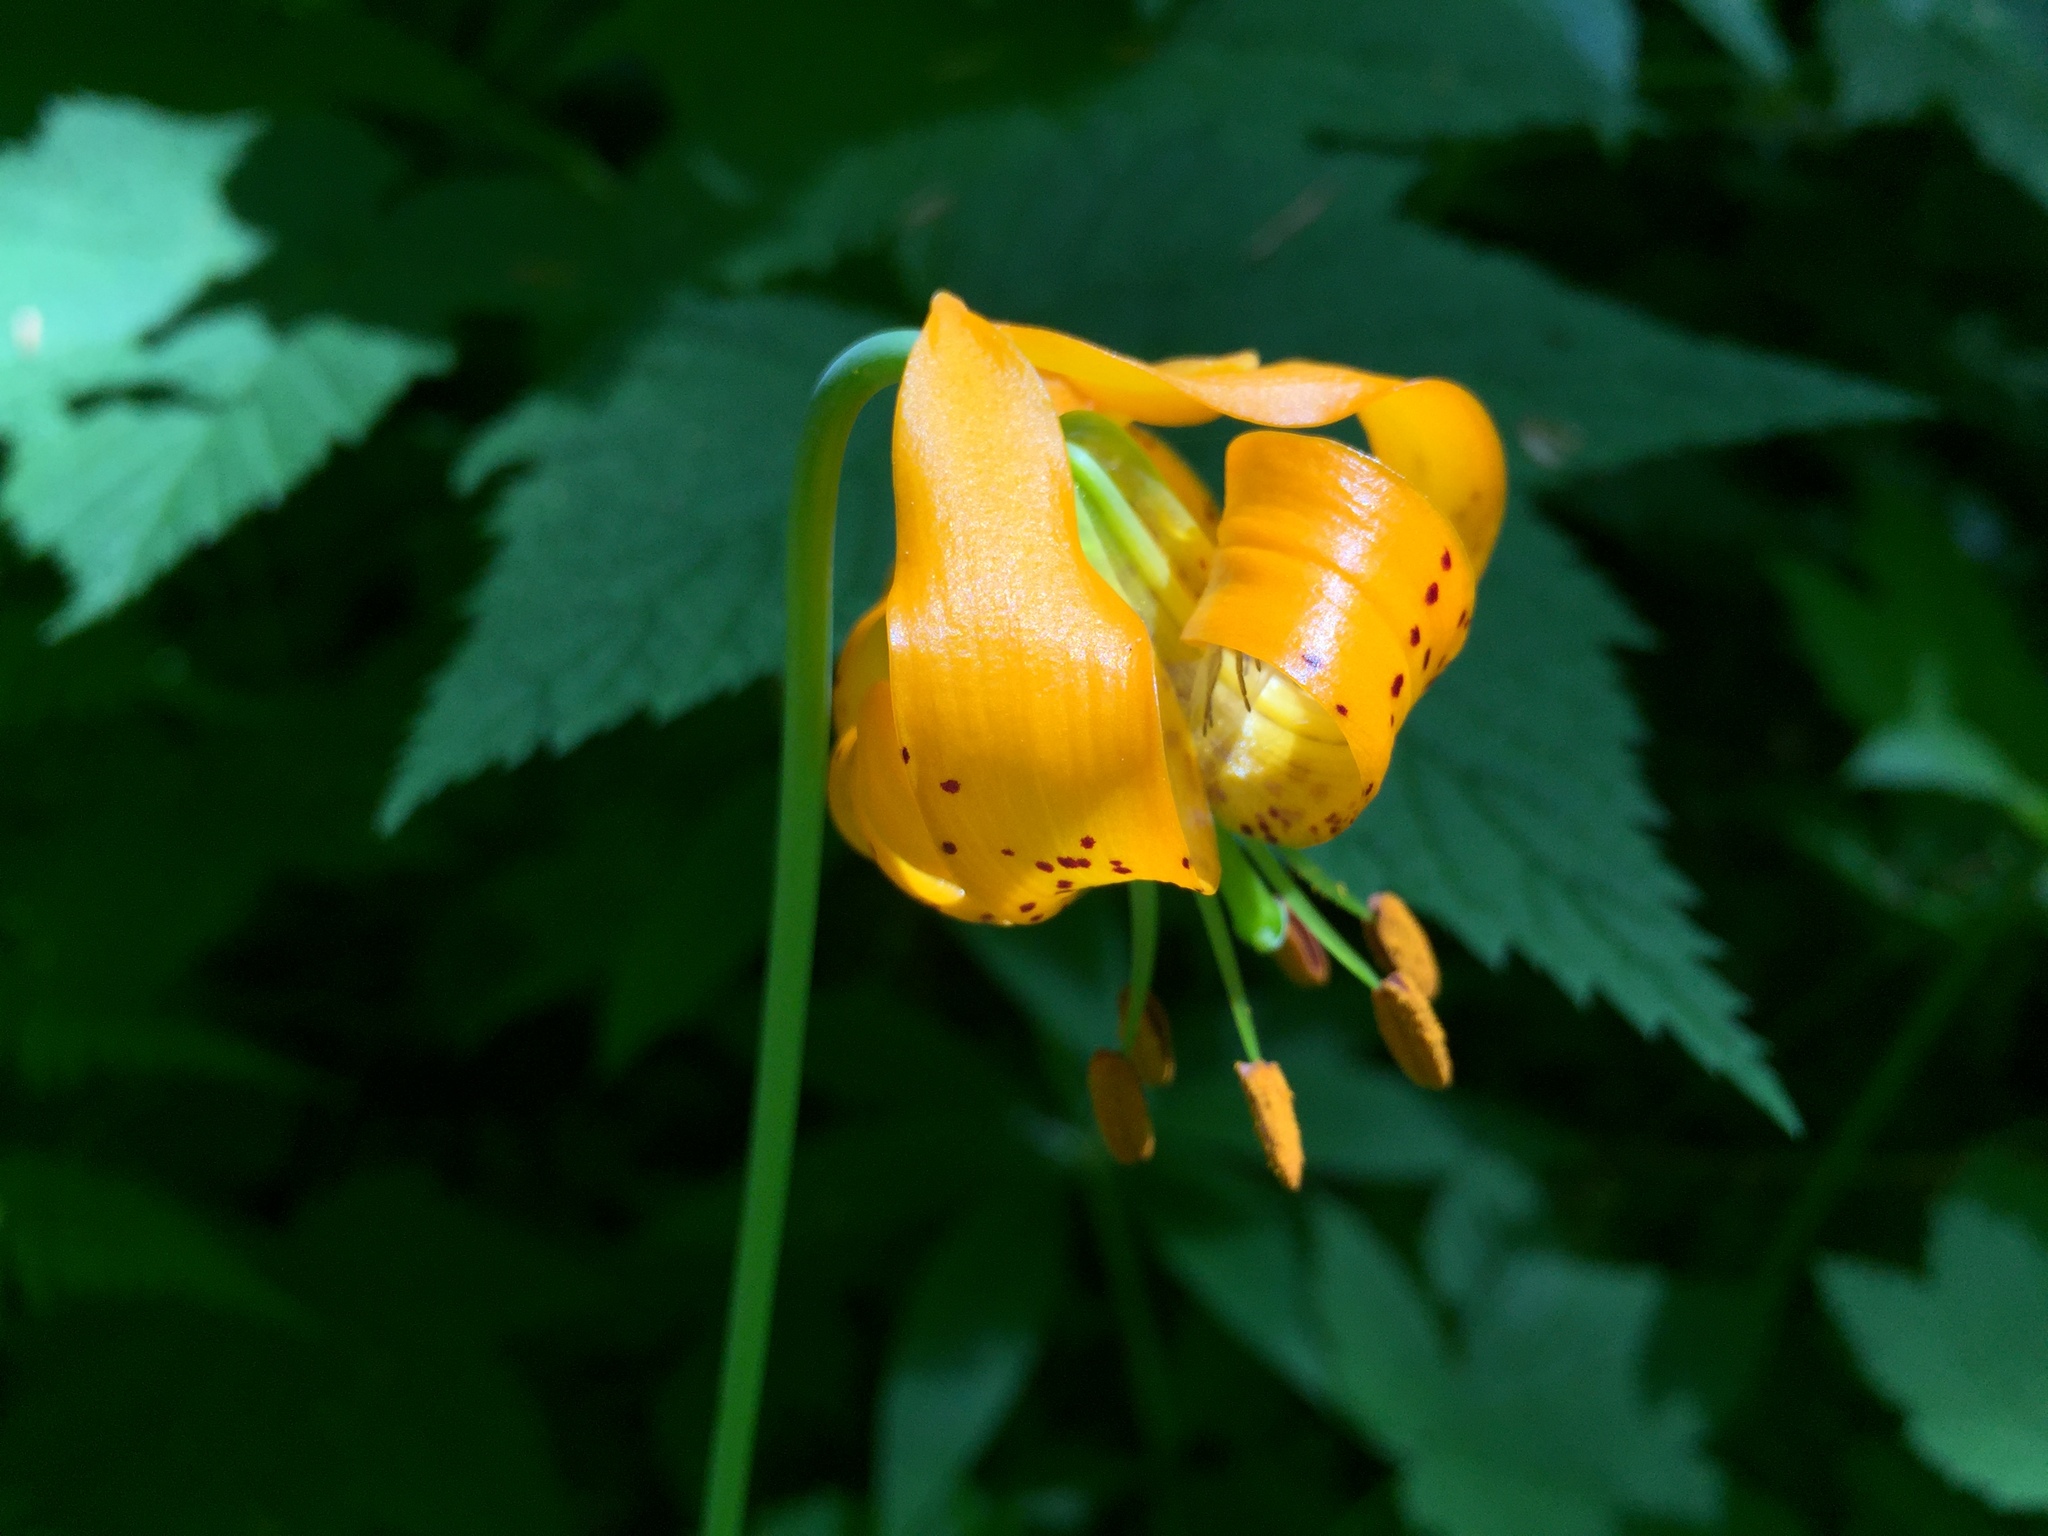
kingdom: Plantae
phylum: Tracheophyta
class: Liliopsida
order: Liliales
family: Liliaceae
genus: Lilium
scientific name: Lilium columbianum
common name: Columbia lily
